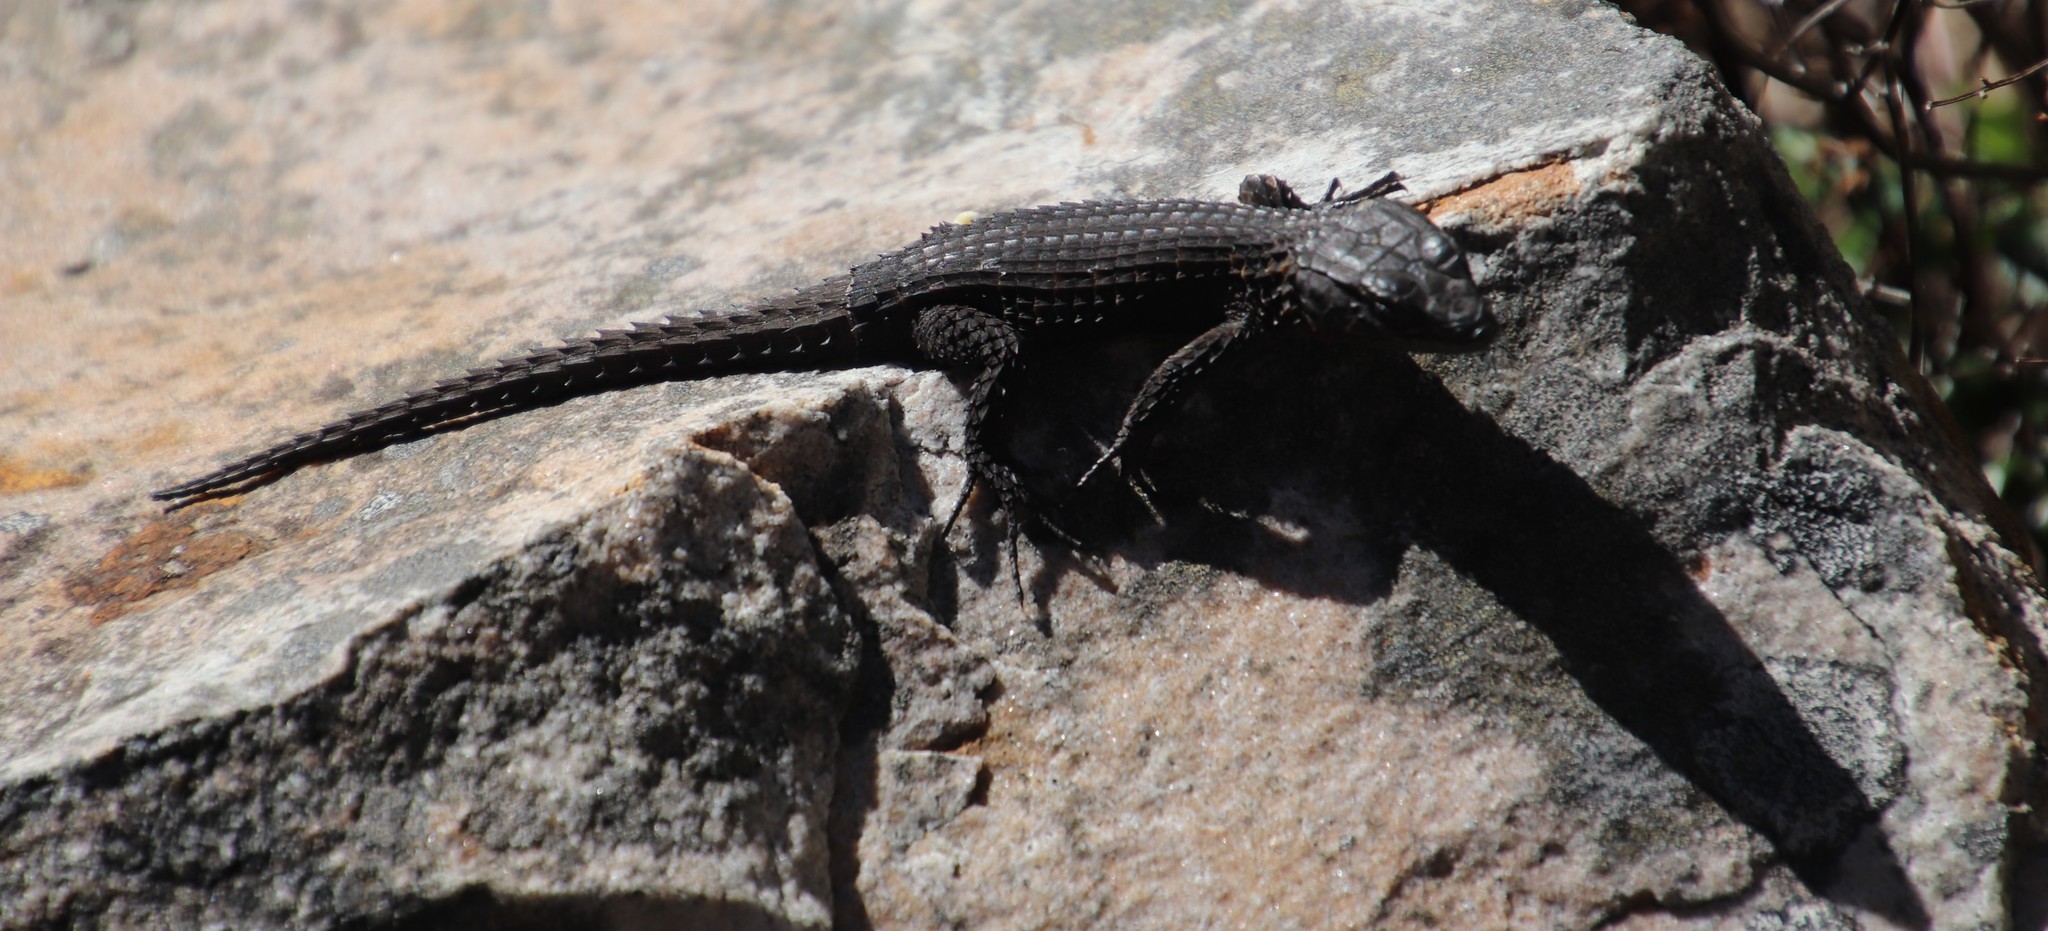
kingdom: Animalia
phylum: Chordata
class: Squamata
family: Cordylidae
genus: Cordylus
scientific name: Cordylus niger
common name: Black girdled lizard
